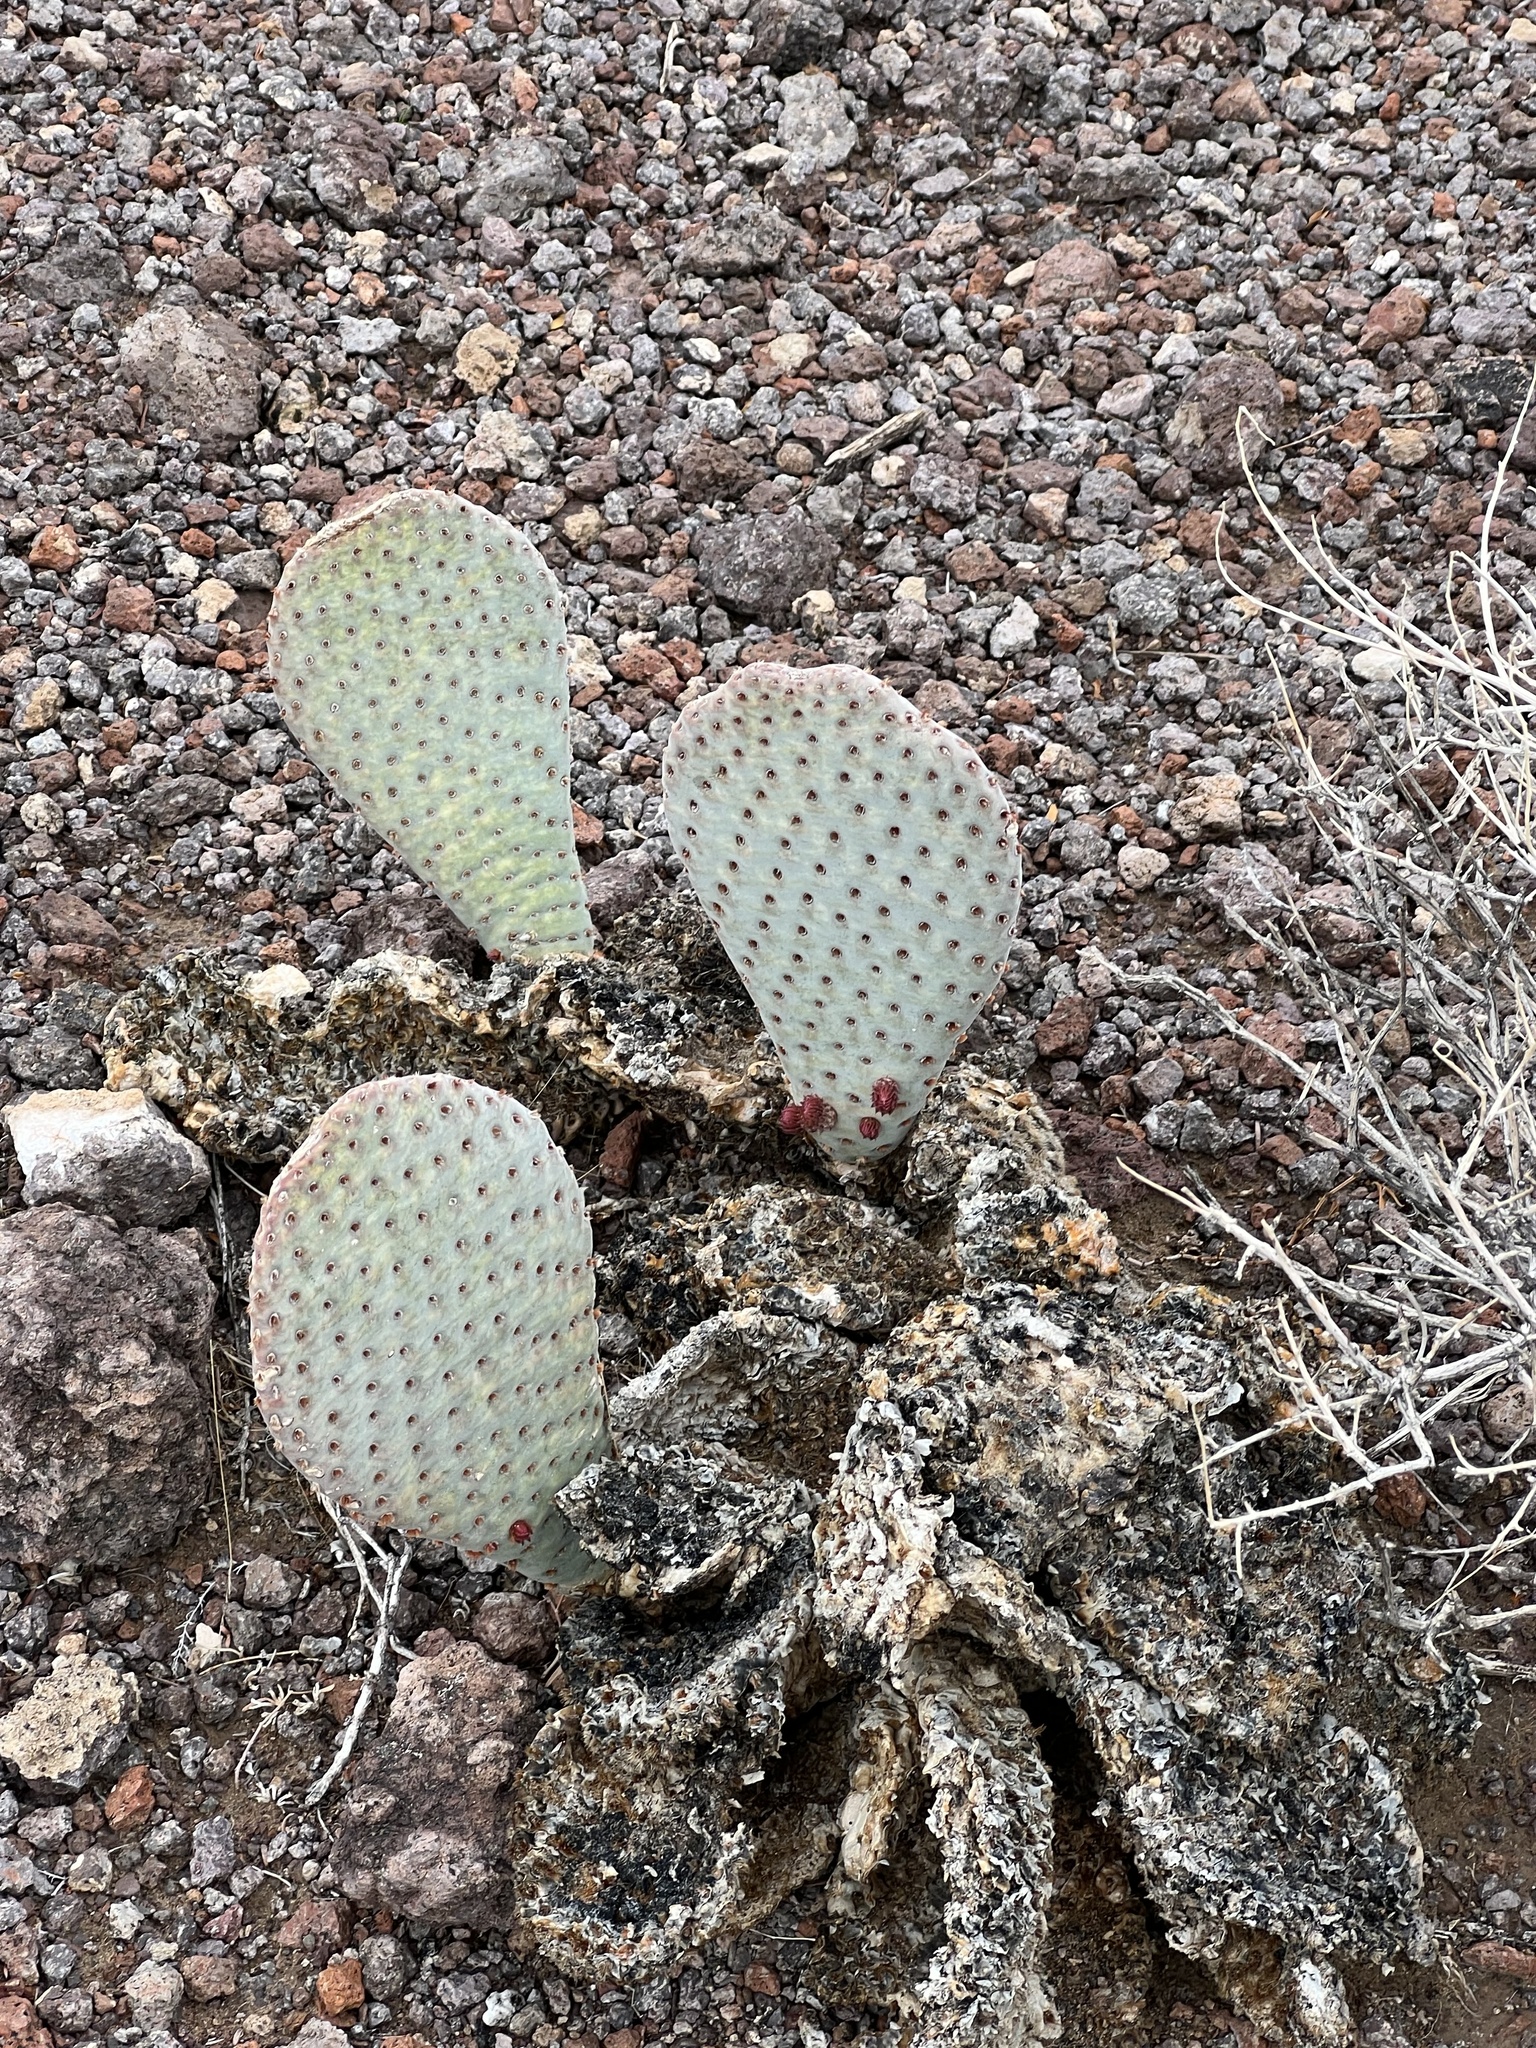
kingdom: Plantae
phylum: Tracheophyta
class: Magnoliopsida
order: Caryophyllales
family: Cactaceae
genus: Opuntia
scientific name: Opuntia basilaris
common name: Beavertail prickly-pear
